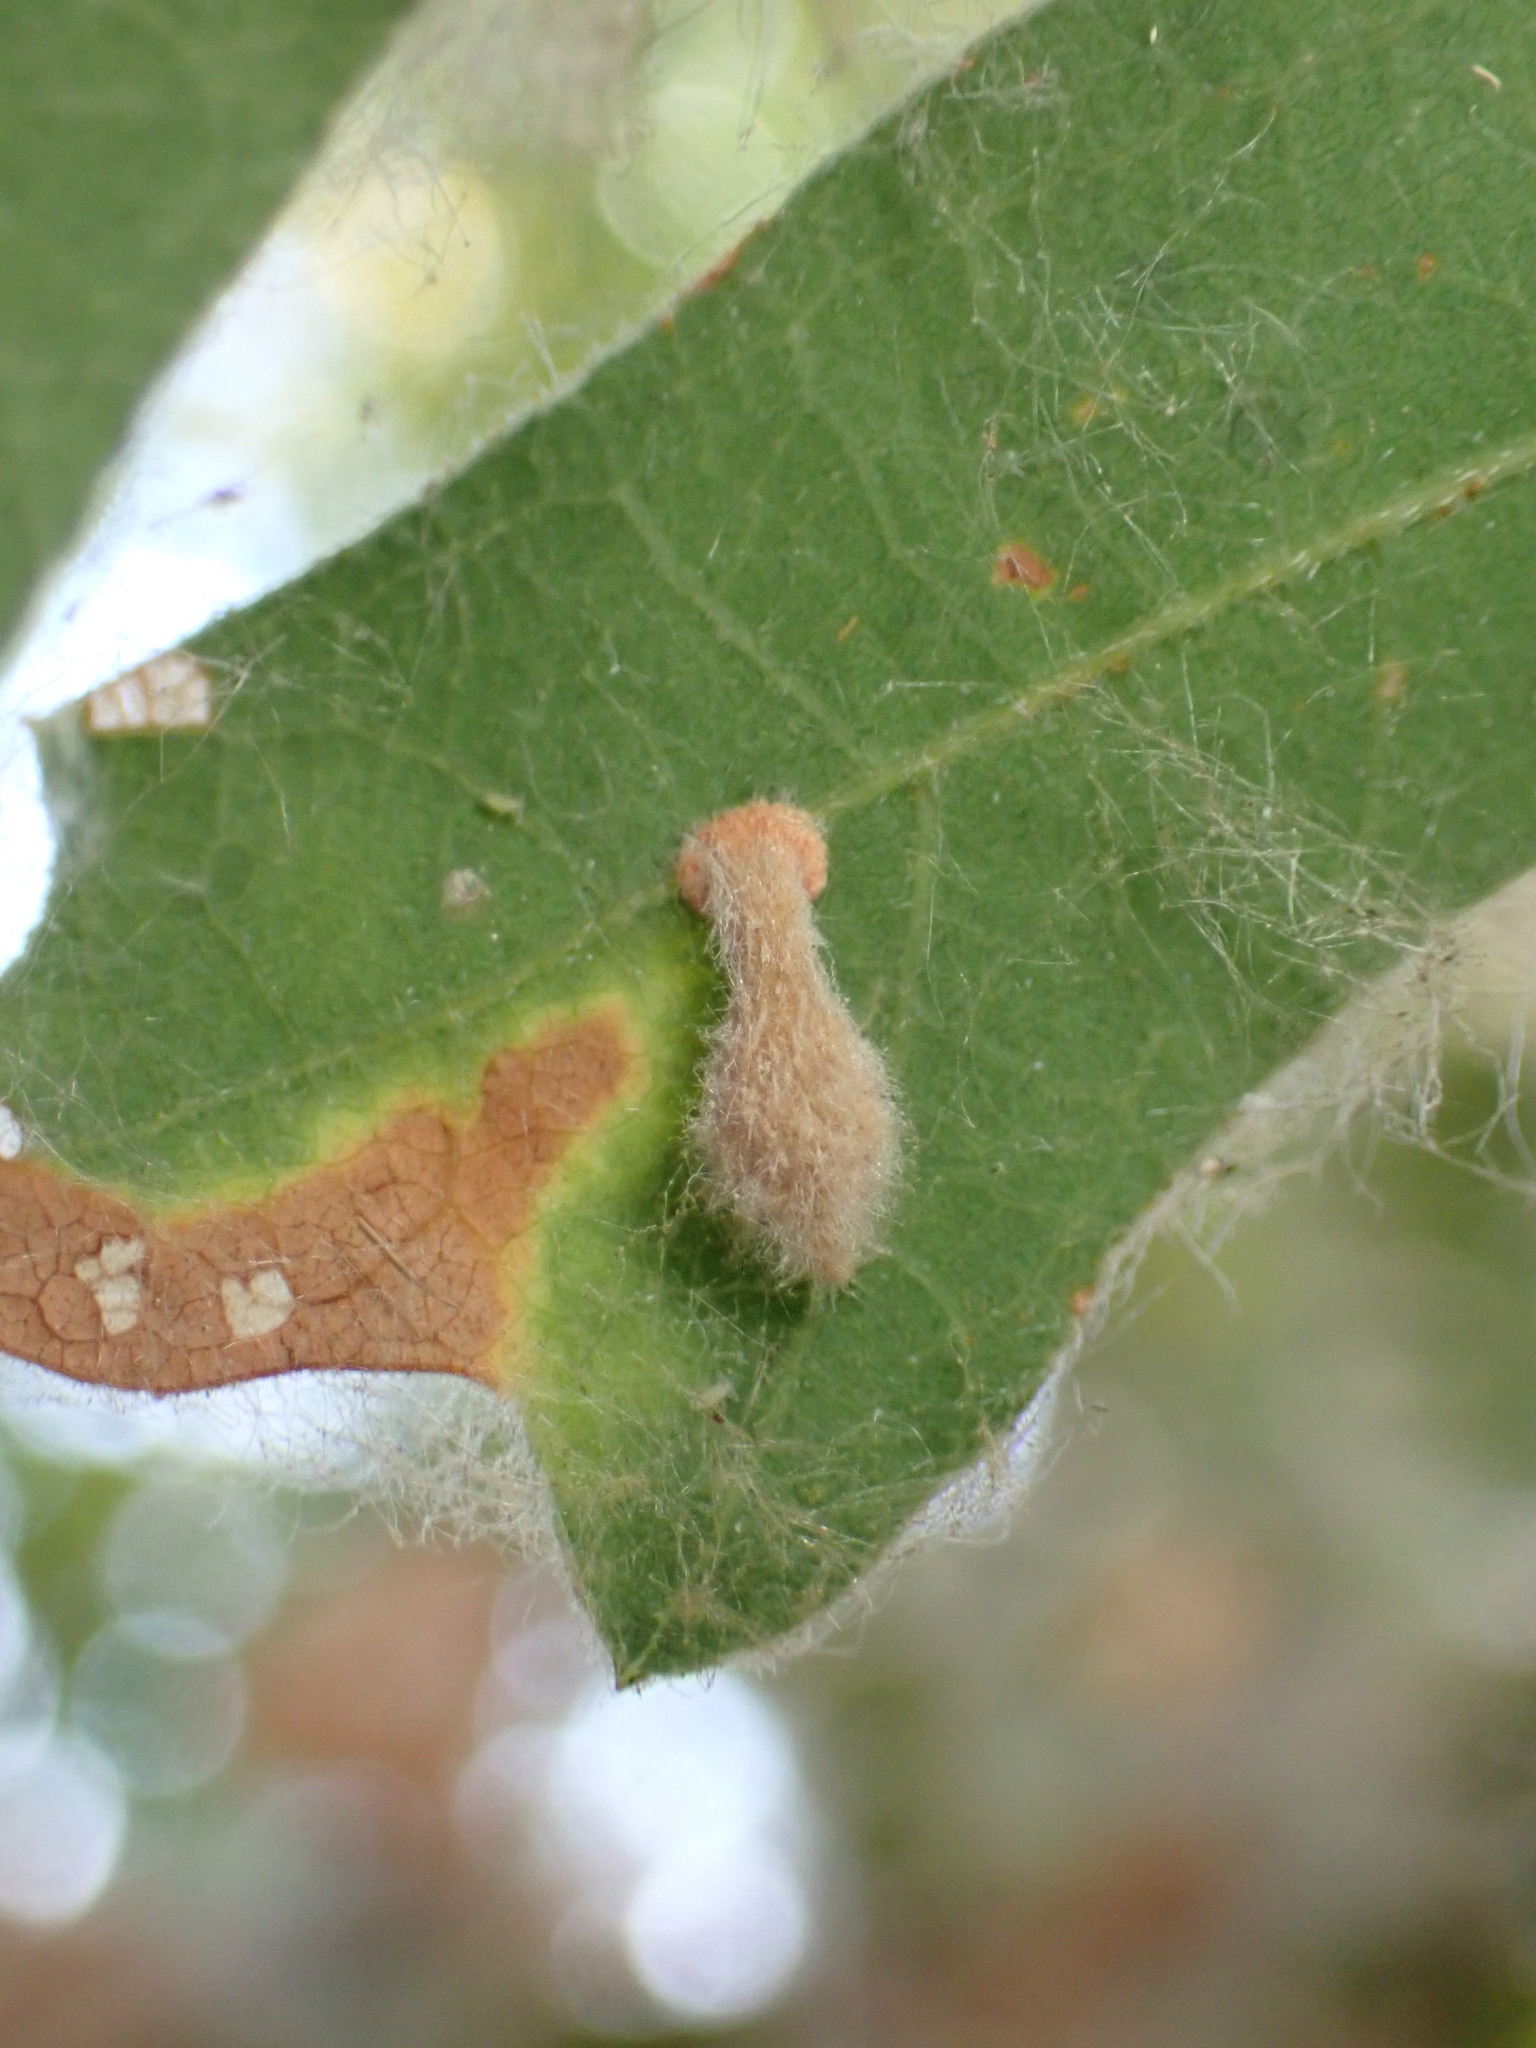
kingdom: Animalia
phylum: Arthropoda
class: Insecta
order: Hymenoptera
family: Cynipidae
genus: Atrusca
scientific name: Atrusca
